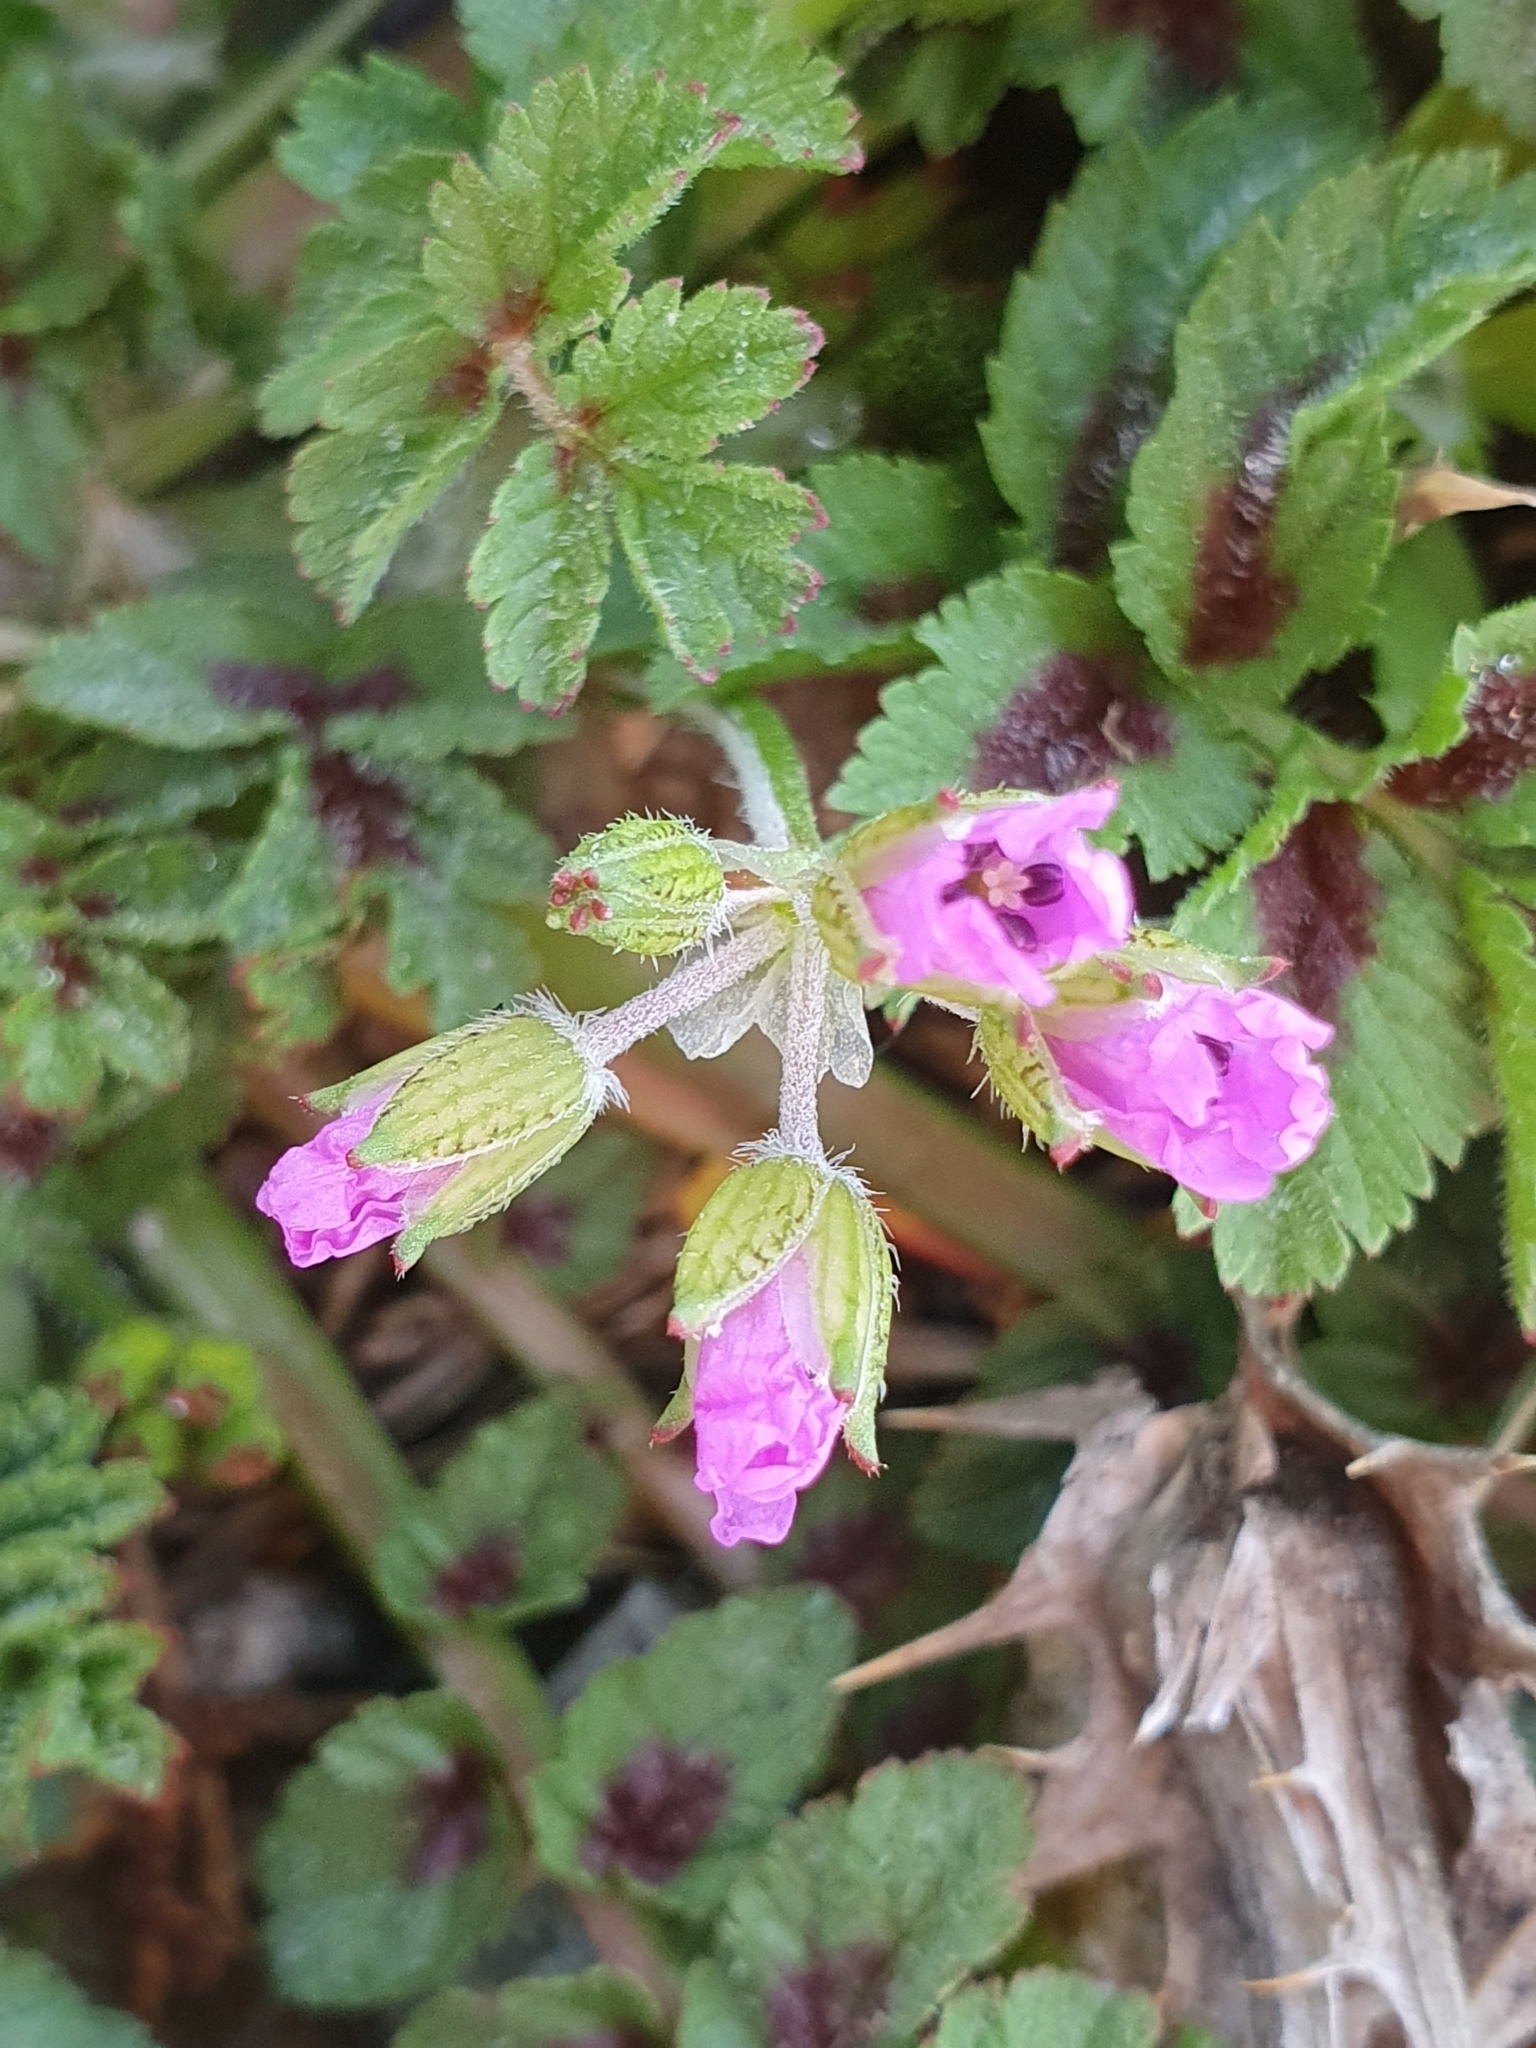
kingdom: Plantae
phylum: Tracheophyta
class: Magnoliopsida
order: Geraniales
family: Geraniaceae
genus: Erodium
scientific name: Erodium moschatum
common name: Musk stork's-bill
